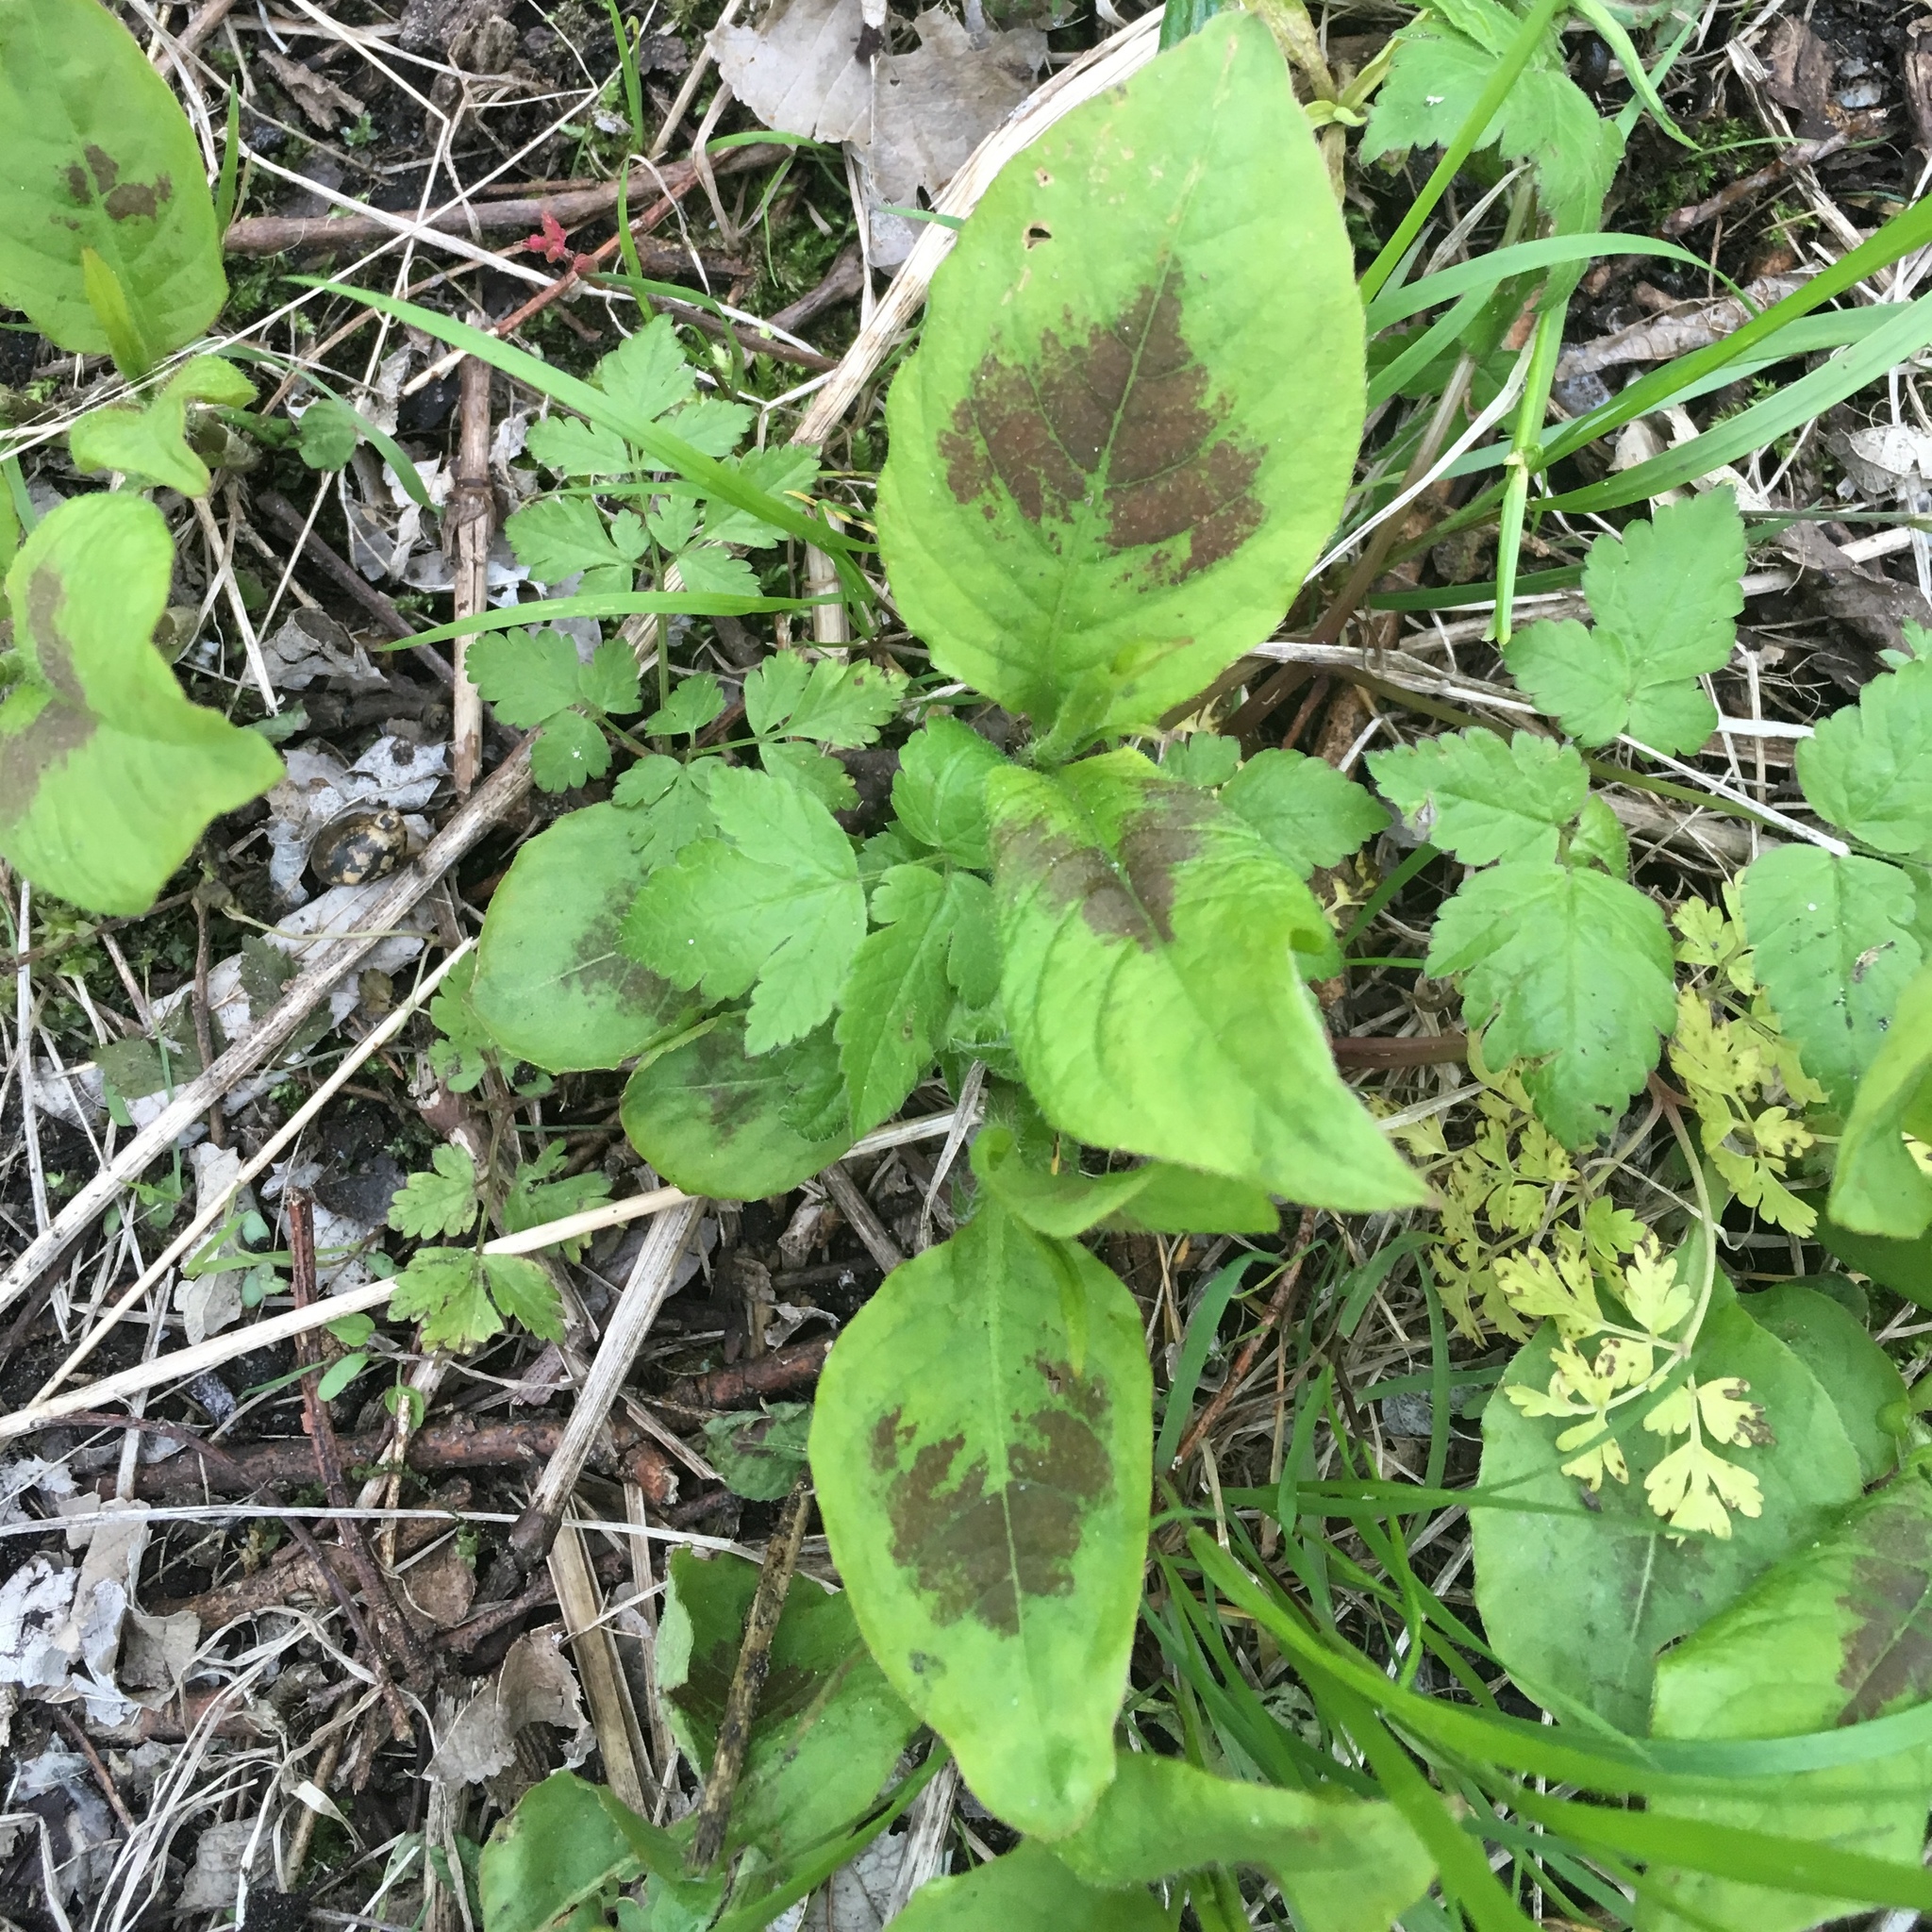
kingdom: Plantae
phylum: Tracheophyta
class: Magnoliopsida
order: Caryophyllales
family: Polygonaceae
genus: Persicaria
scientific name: Persicaria virginiana
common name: Jumpseed
